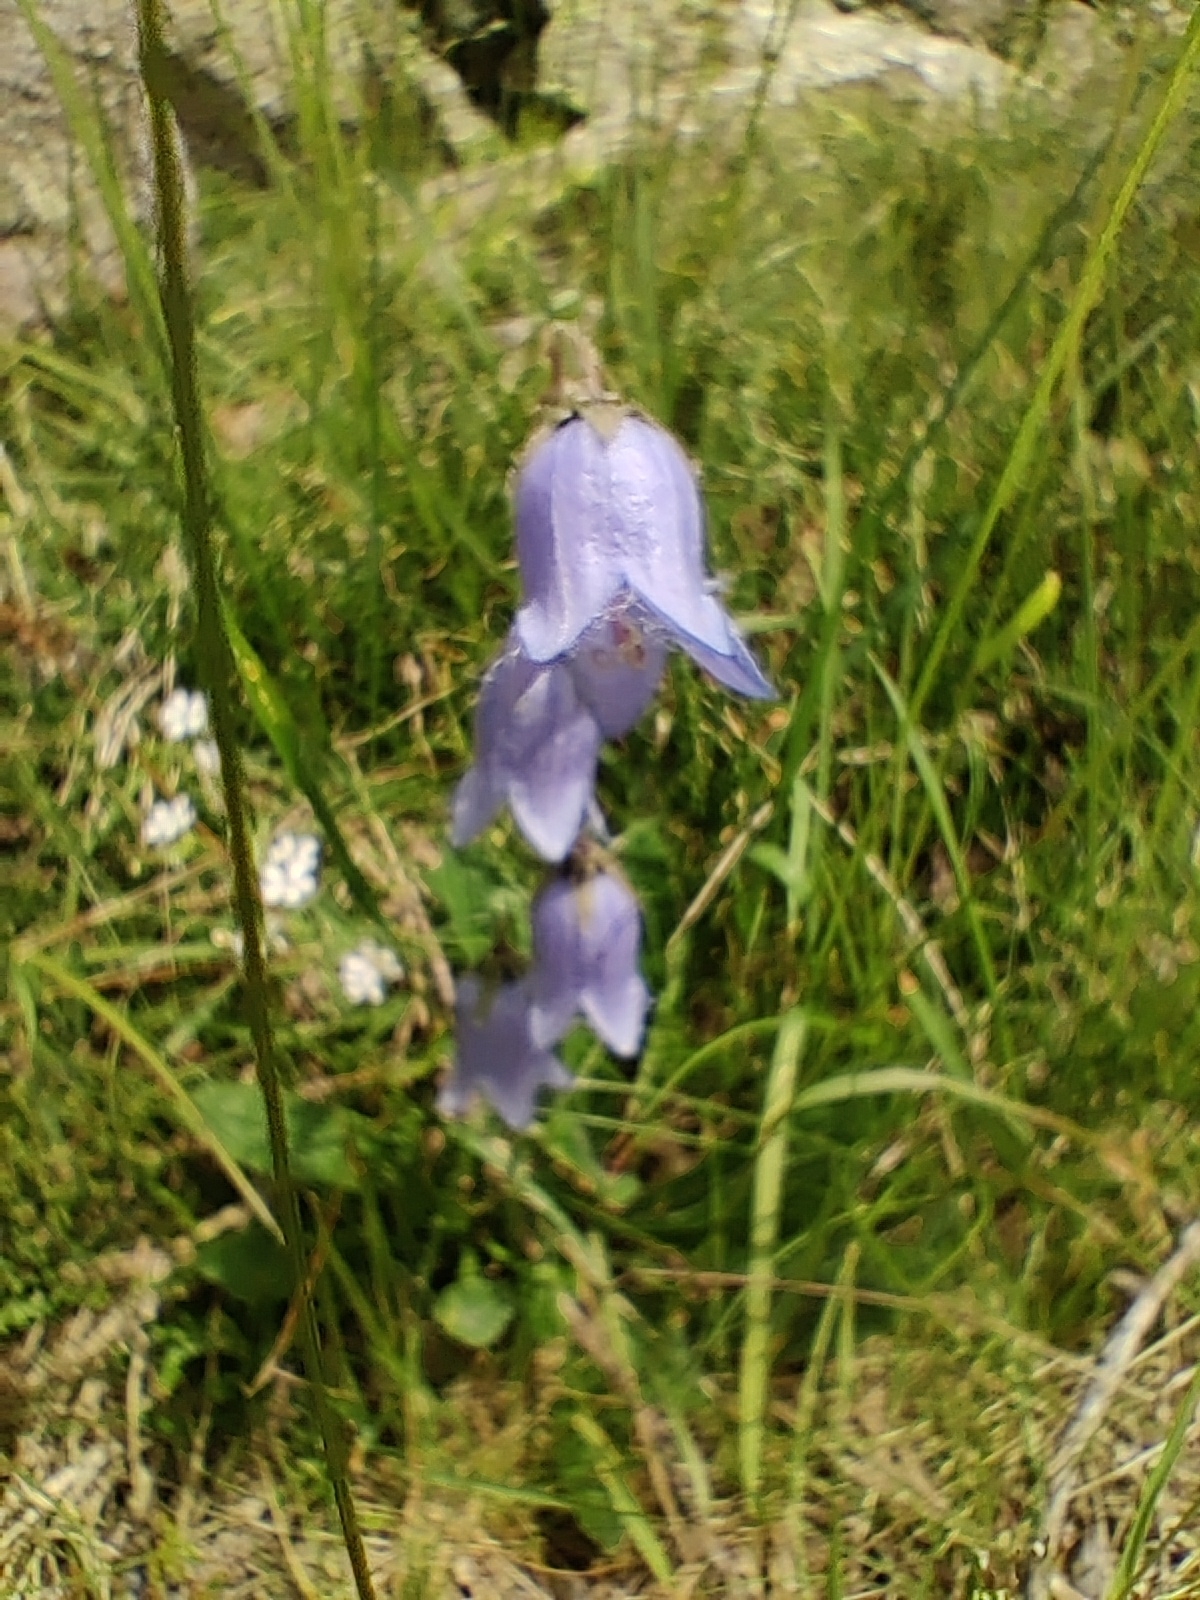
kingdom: Plantae
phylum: Tracheophyta
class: Magnoliopsida
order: Asterales
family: Campanulaceae
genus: Campanula
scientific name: Campanula barbata
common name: Bearded bellflower
